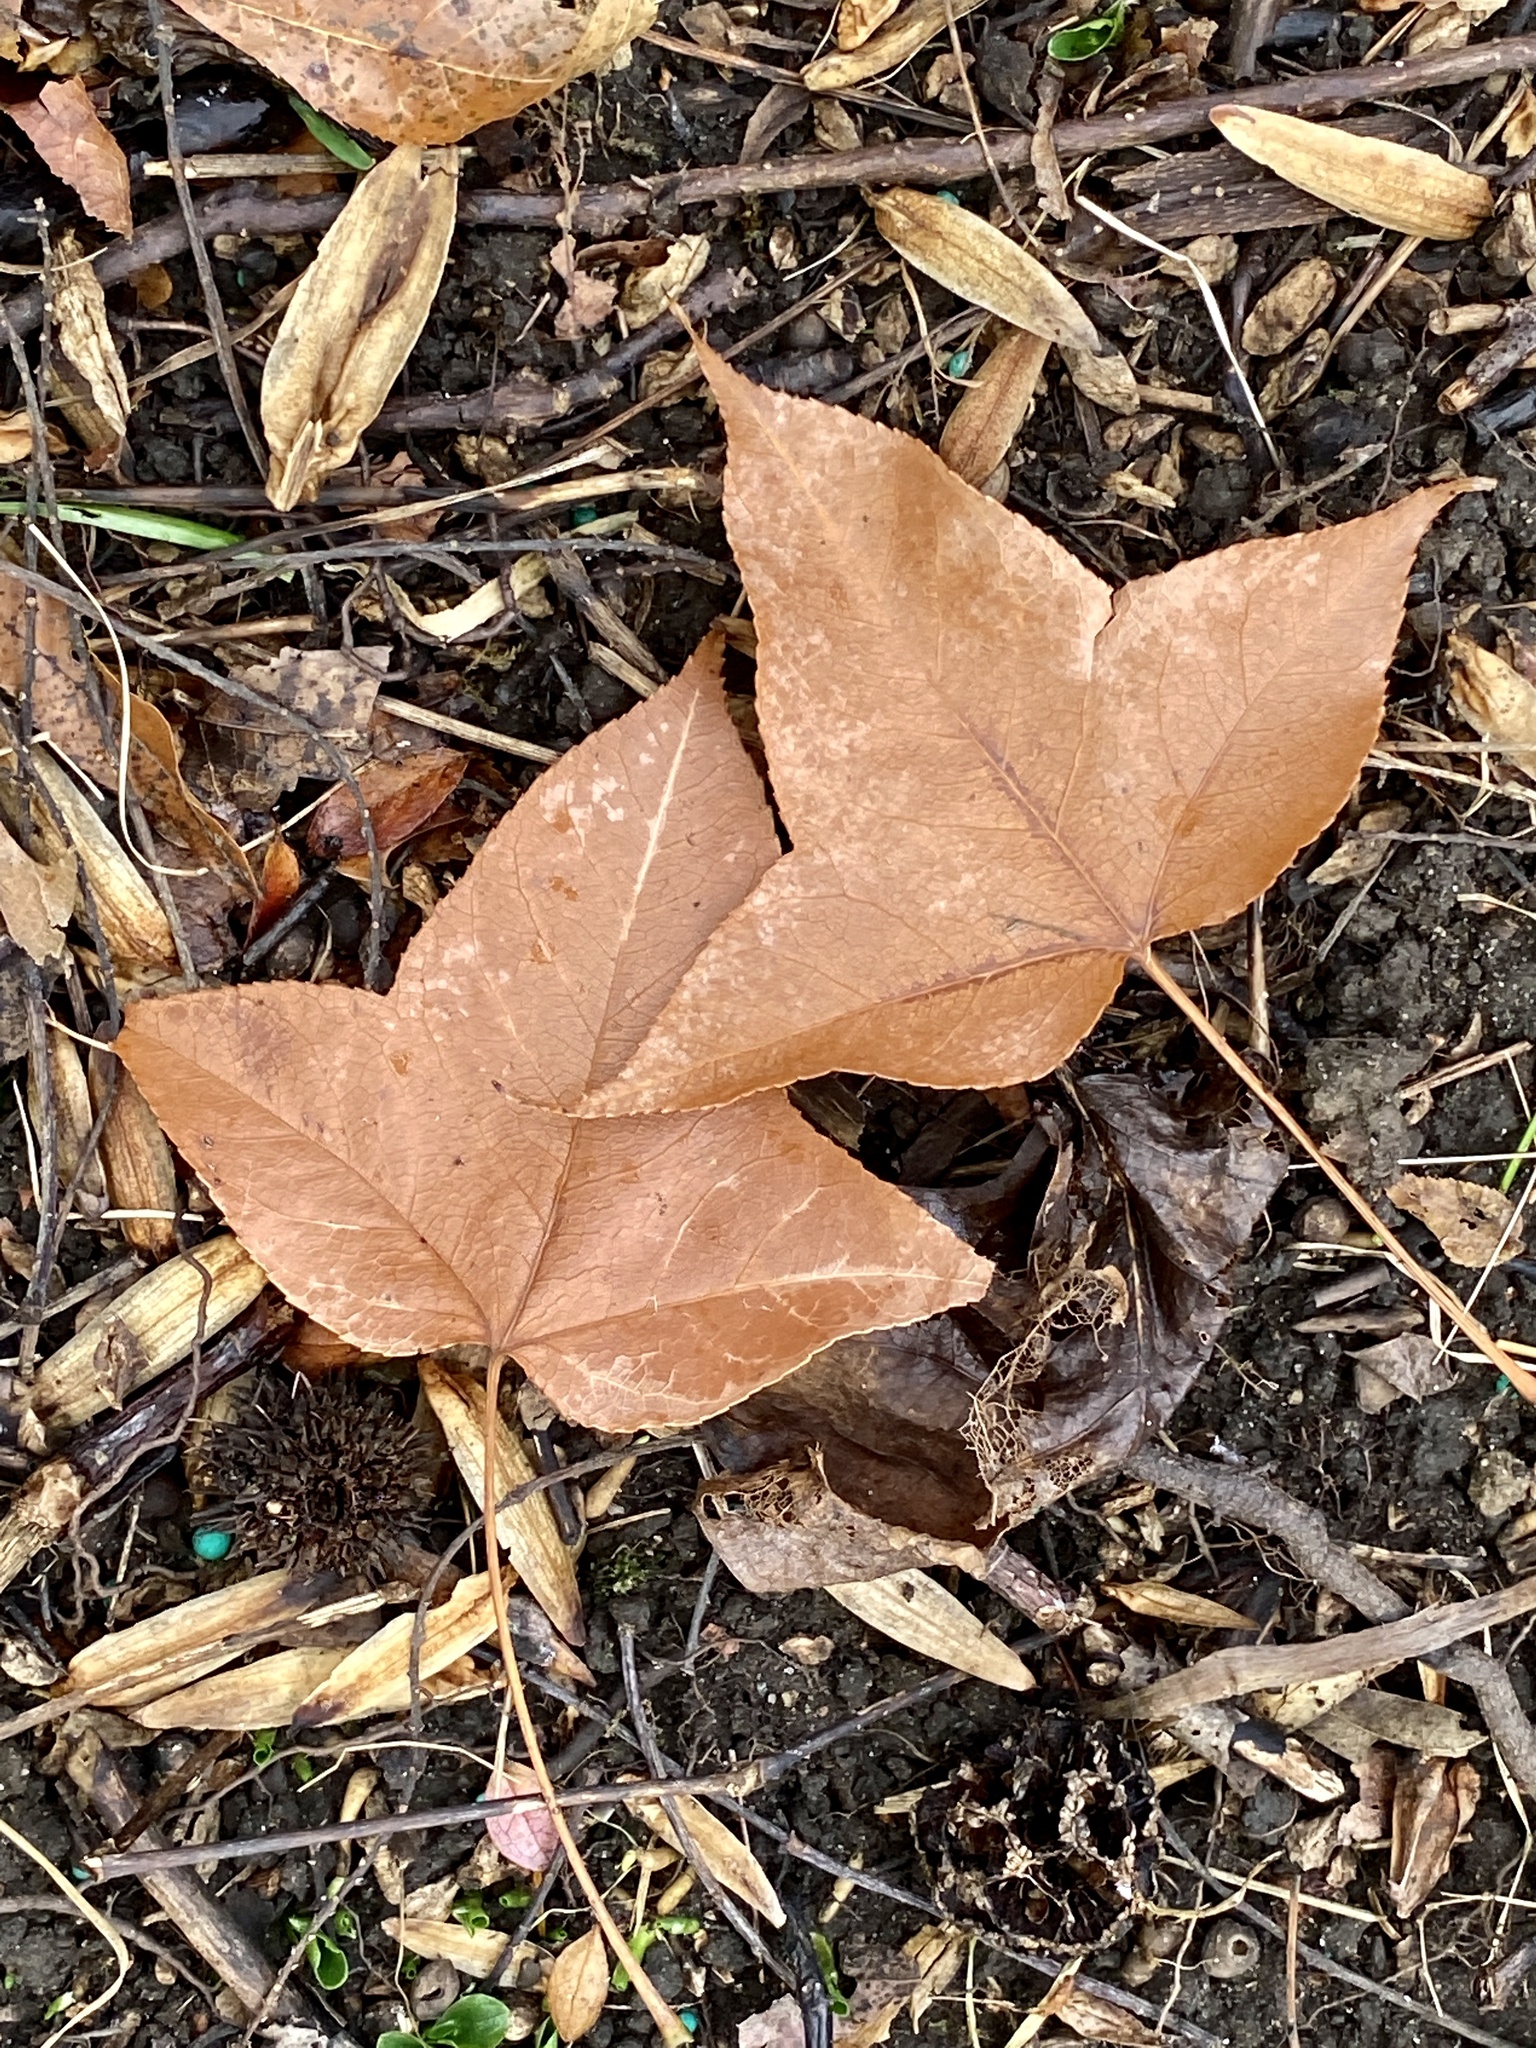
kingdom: Plantae
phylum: Tracheophyta
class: Magnoliopsida
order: Saxifragales
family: Altingiaceae
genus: Liquidambar
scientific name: Liquidambar styraciflua
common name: Sweet gum
